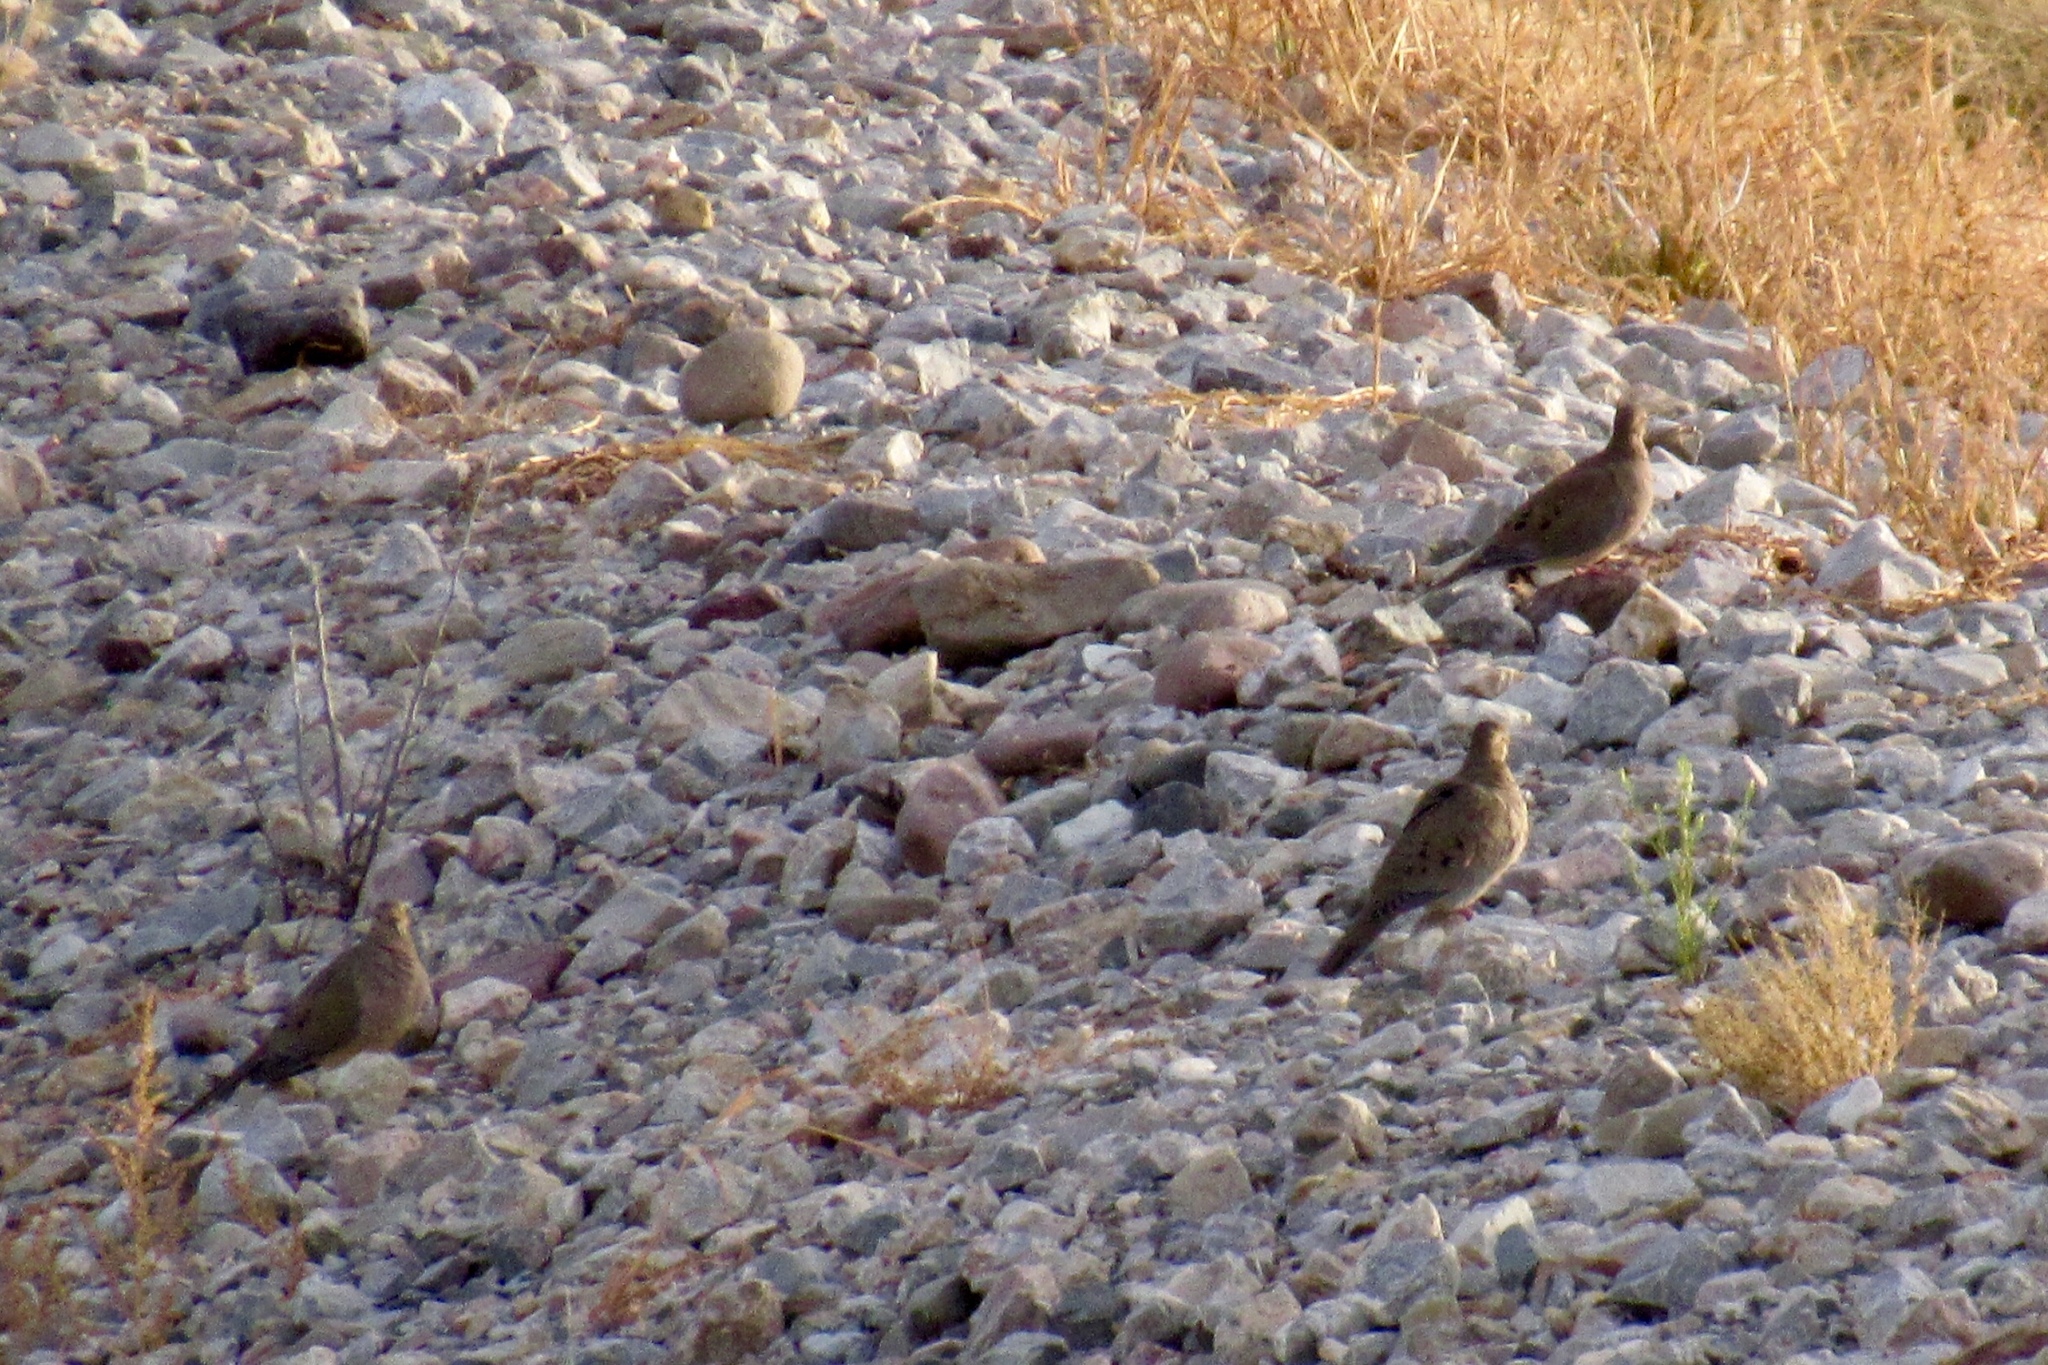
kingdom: Animalia
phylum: Chordata
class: Aves
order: Columbiformes
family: Columbidae
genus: Zenaida
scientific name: Zenaida macroura
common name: Mourning dove
